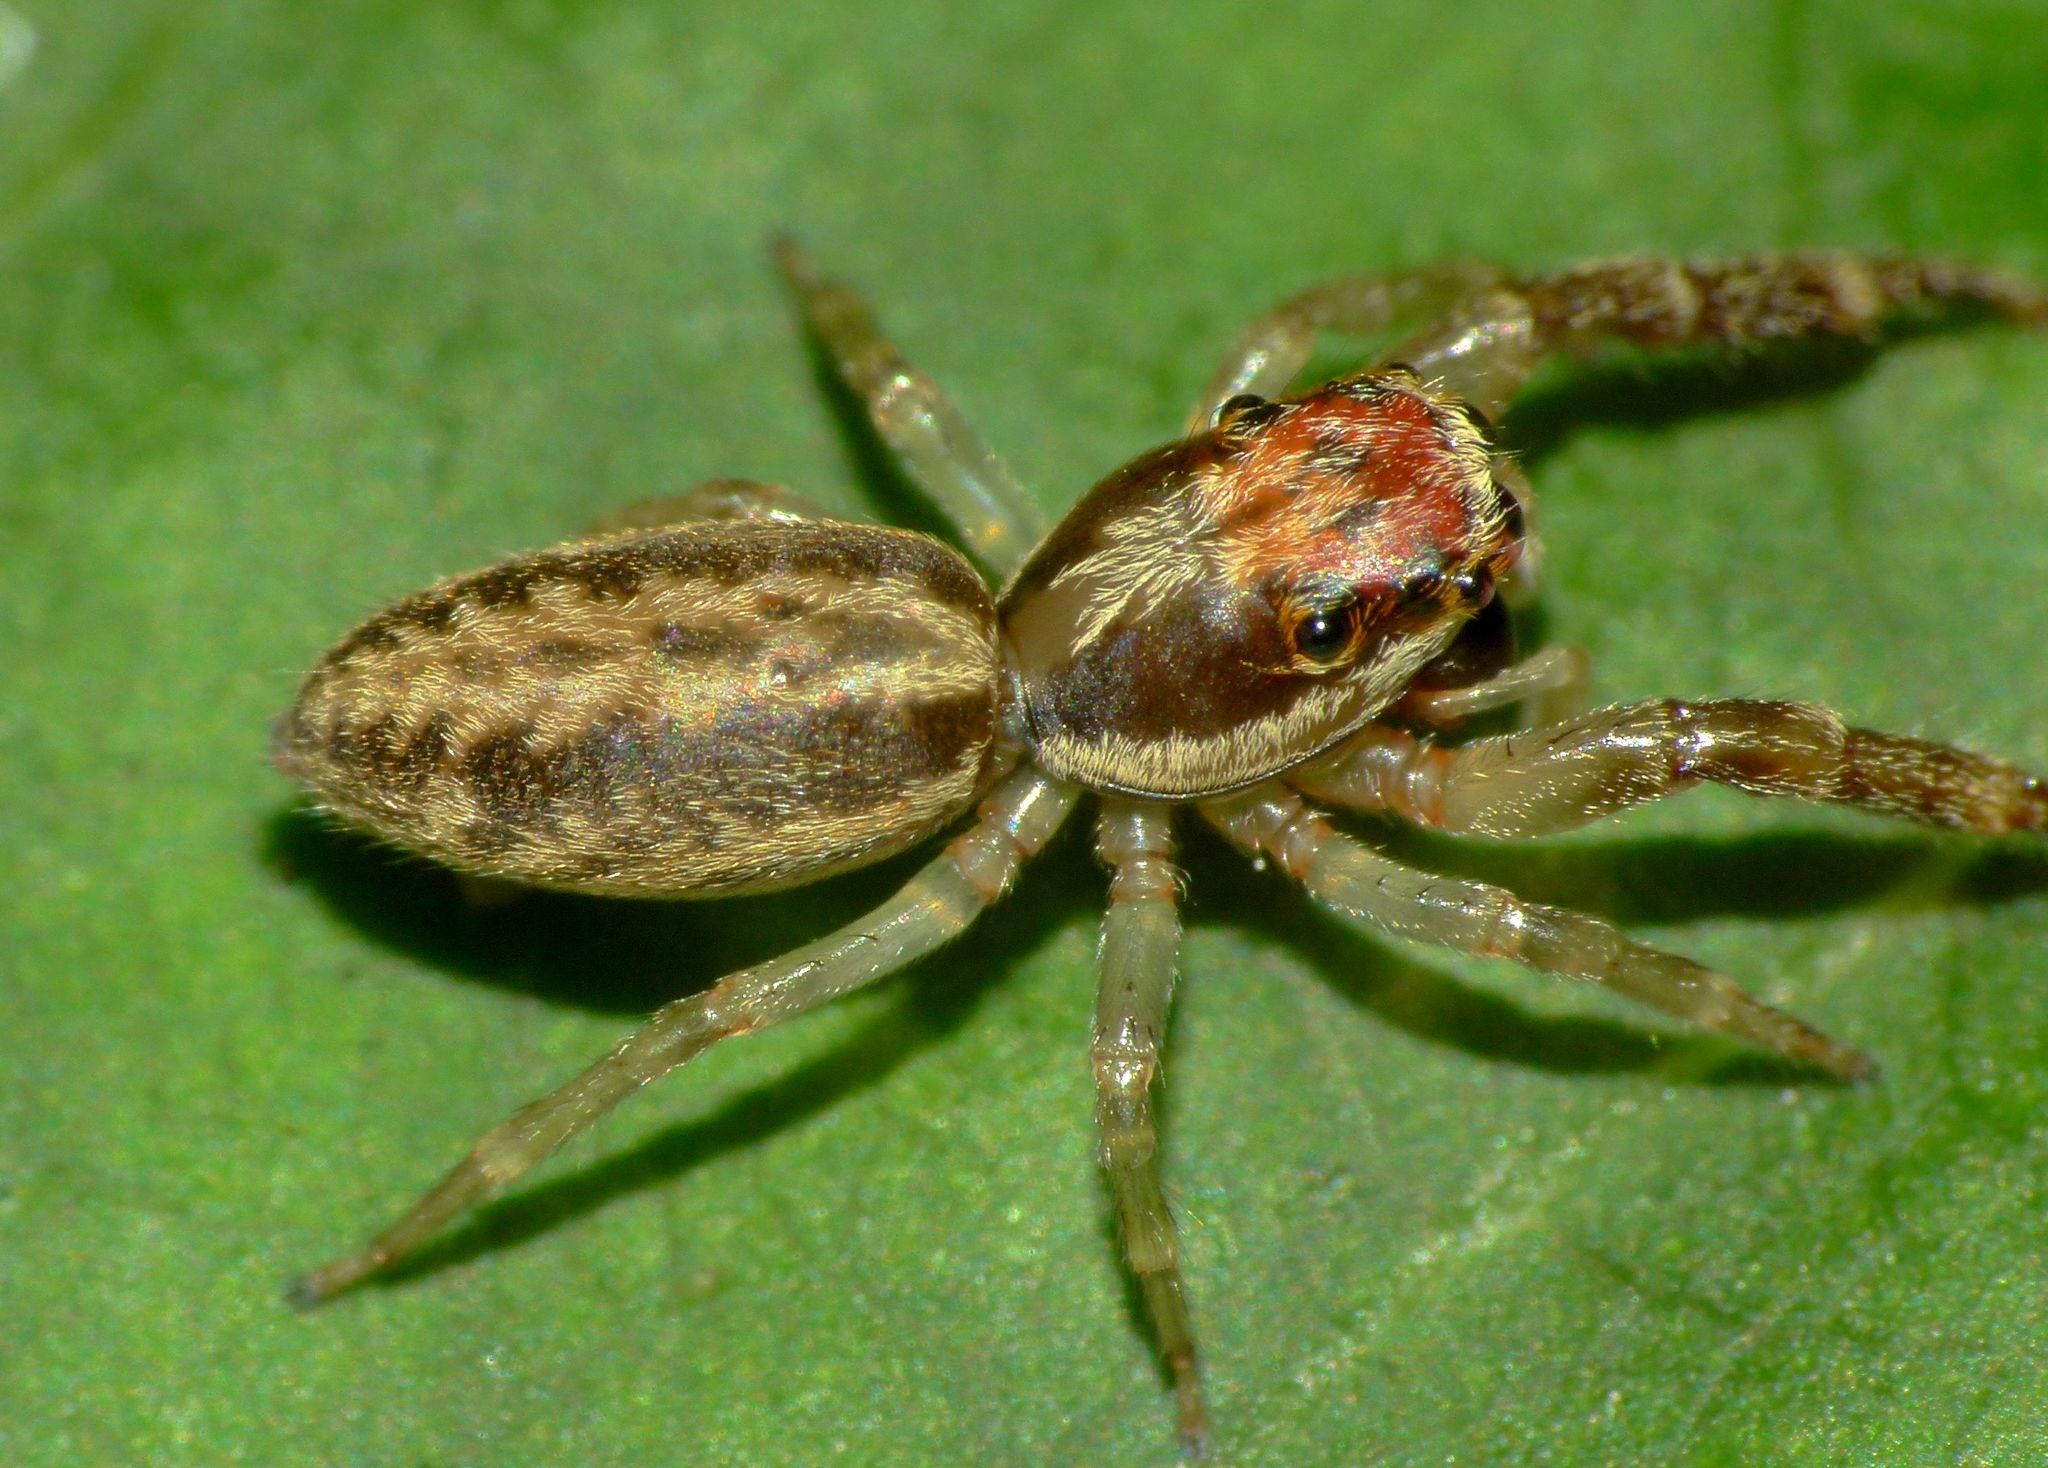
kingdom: Animalia
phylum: Arthropoda
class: Arachnida
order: Araneae
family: Salticidae
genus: Trite
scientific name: Trite mustilina
